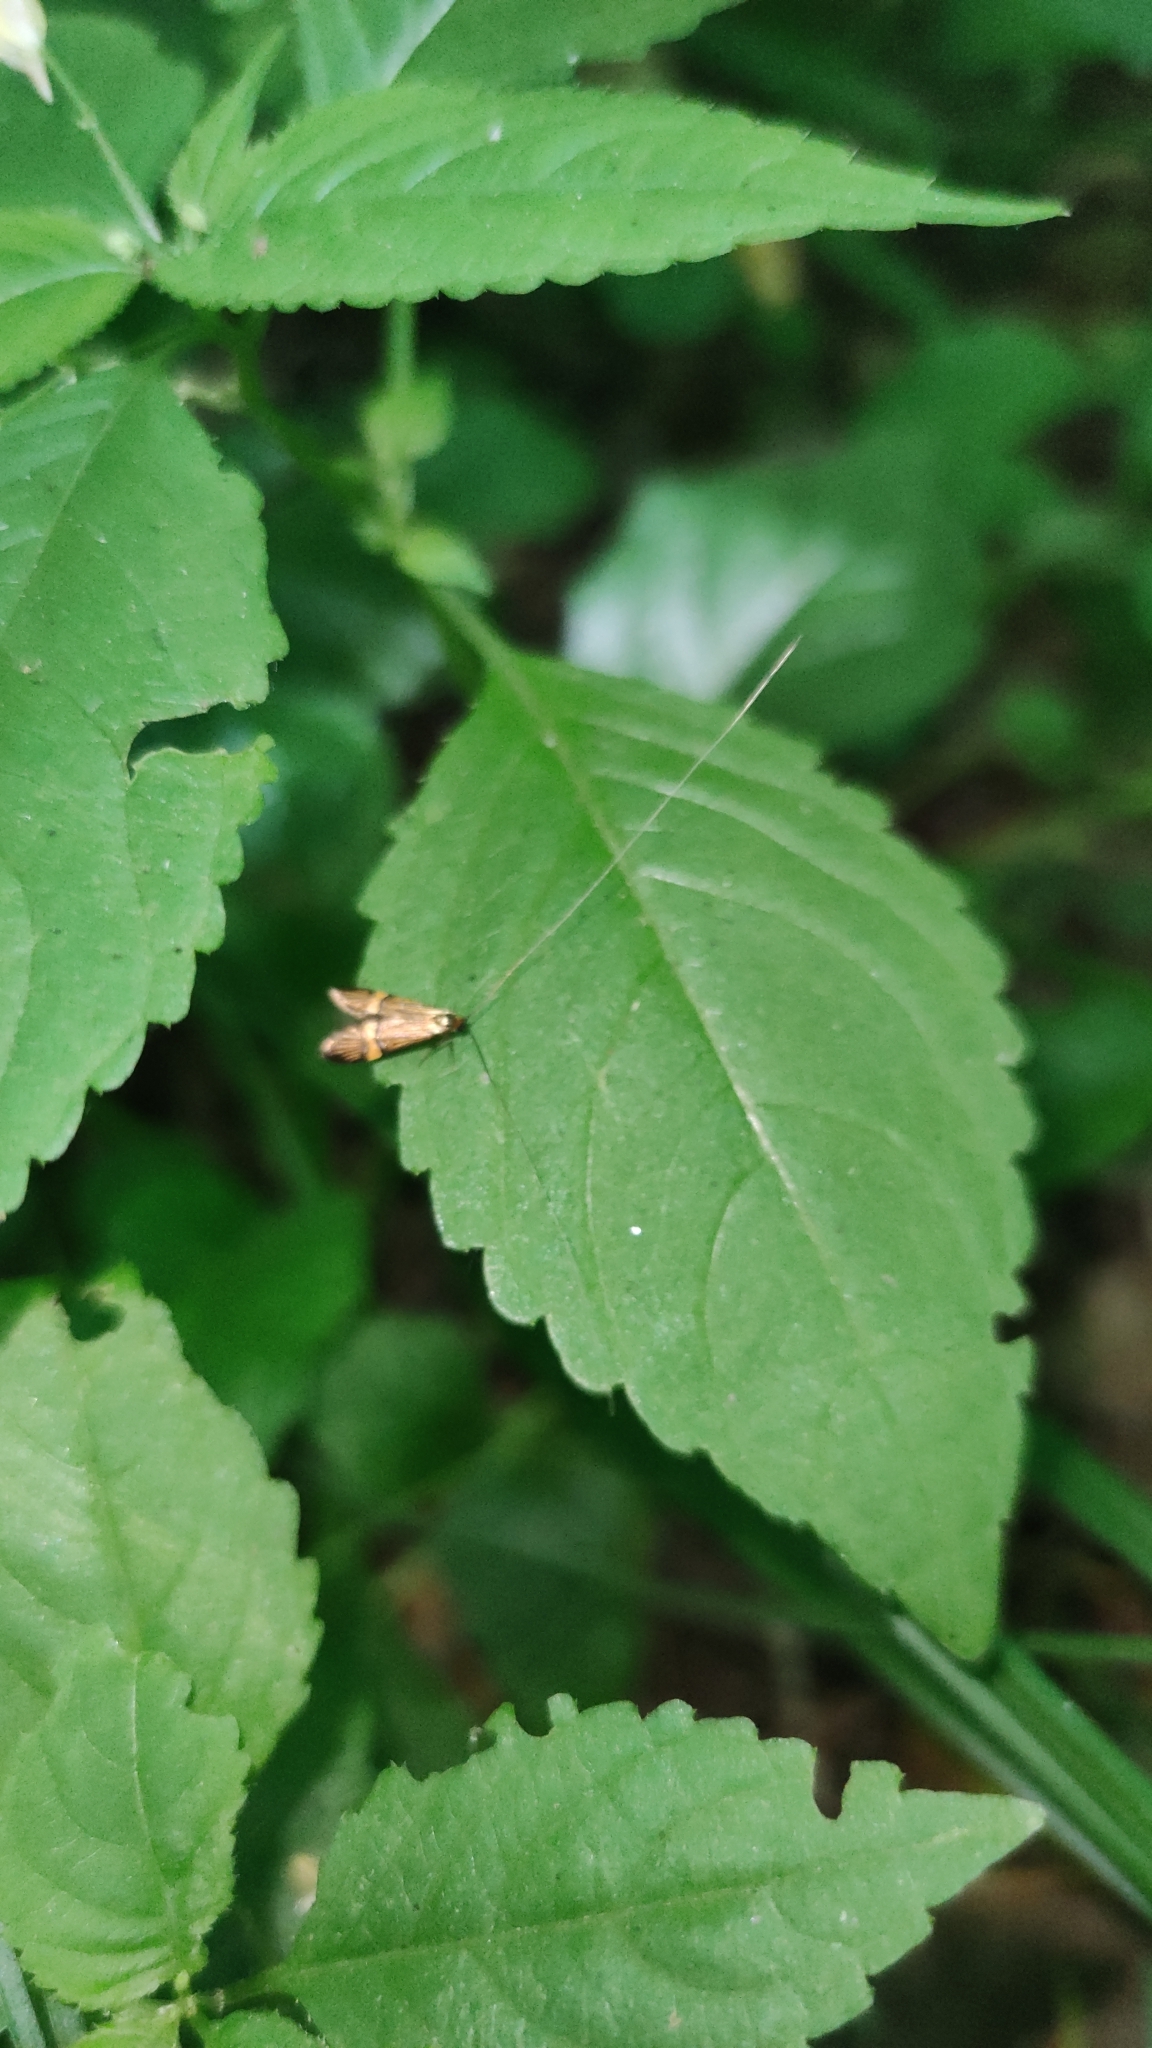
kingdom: Animalia
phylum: Arthropoda
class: Insecta
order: Lepidoptera
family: Adelidae
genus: Nemophora
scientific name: Nemophora degeerella
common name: Yellow-barred long-horn
